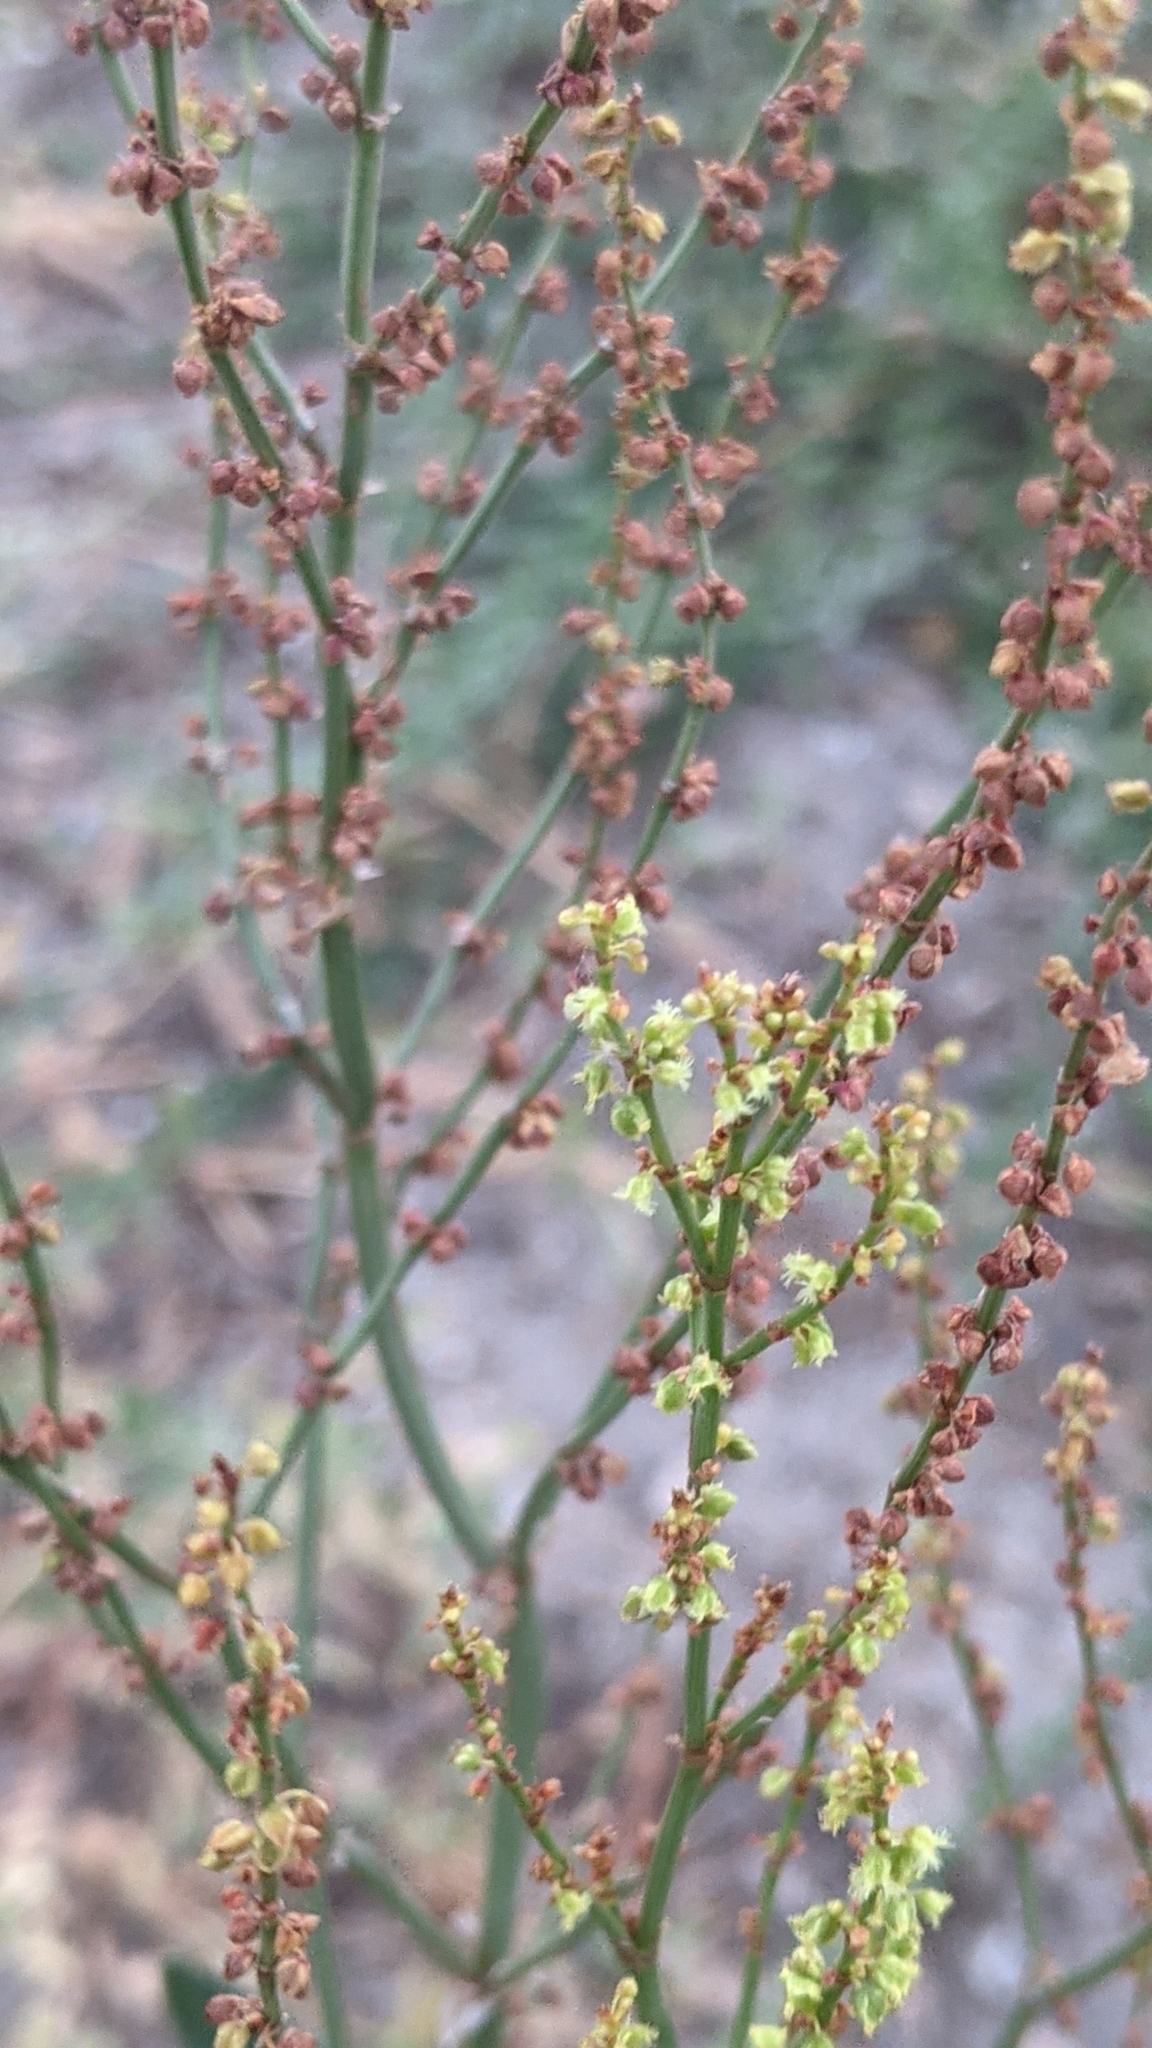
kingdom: Plantae
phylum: Tracheophyta
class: Magnoliopsida
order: Caryophyllales
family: Polygonaceae
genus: Rumex
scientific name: Rumex acetosella
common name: Common sheep sorrel
